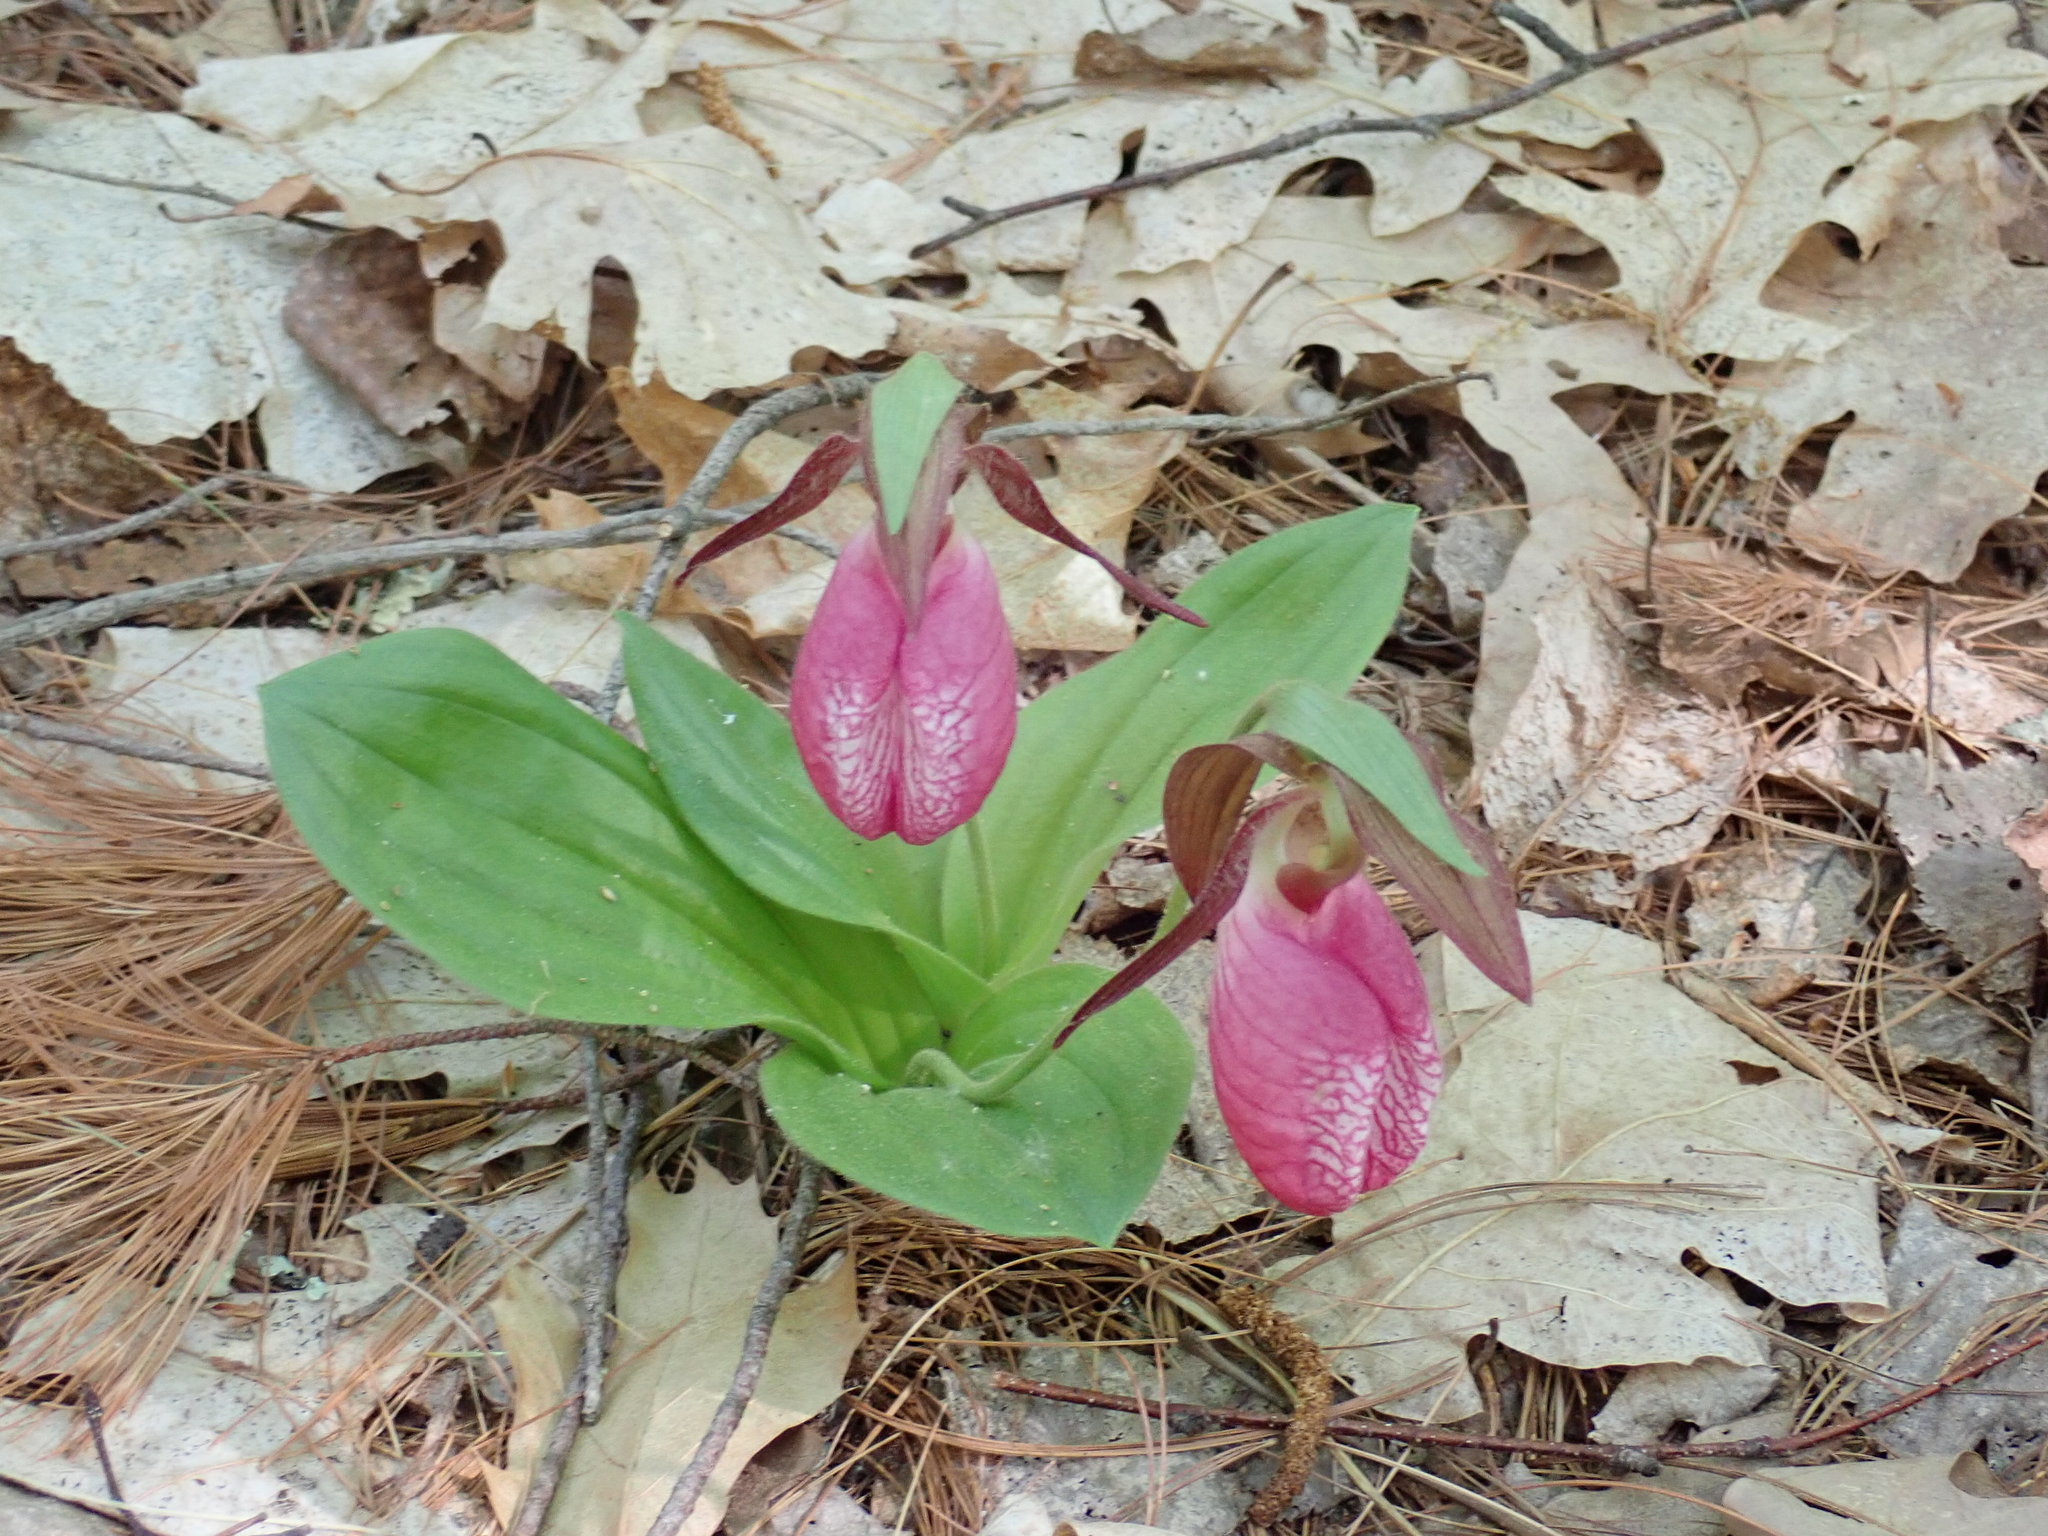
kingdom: Plantae
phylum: Tracheophyta
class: Liliopsida
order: Asparagales
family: Orchidaceae
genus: Cypripedium
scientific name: Cypripedium acaule
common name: Pink lady's-slipper
